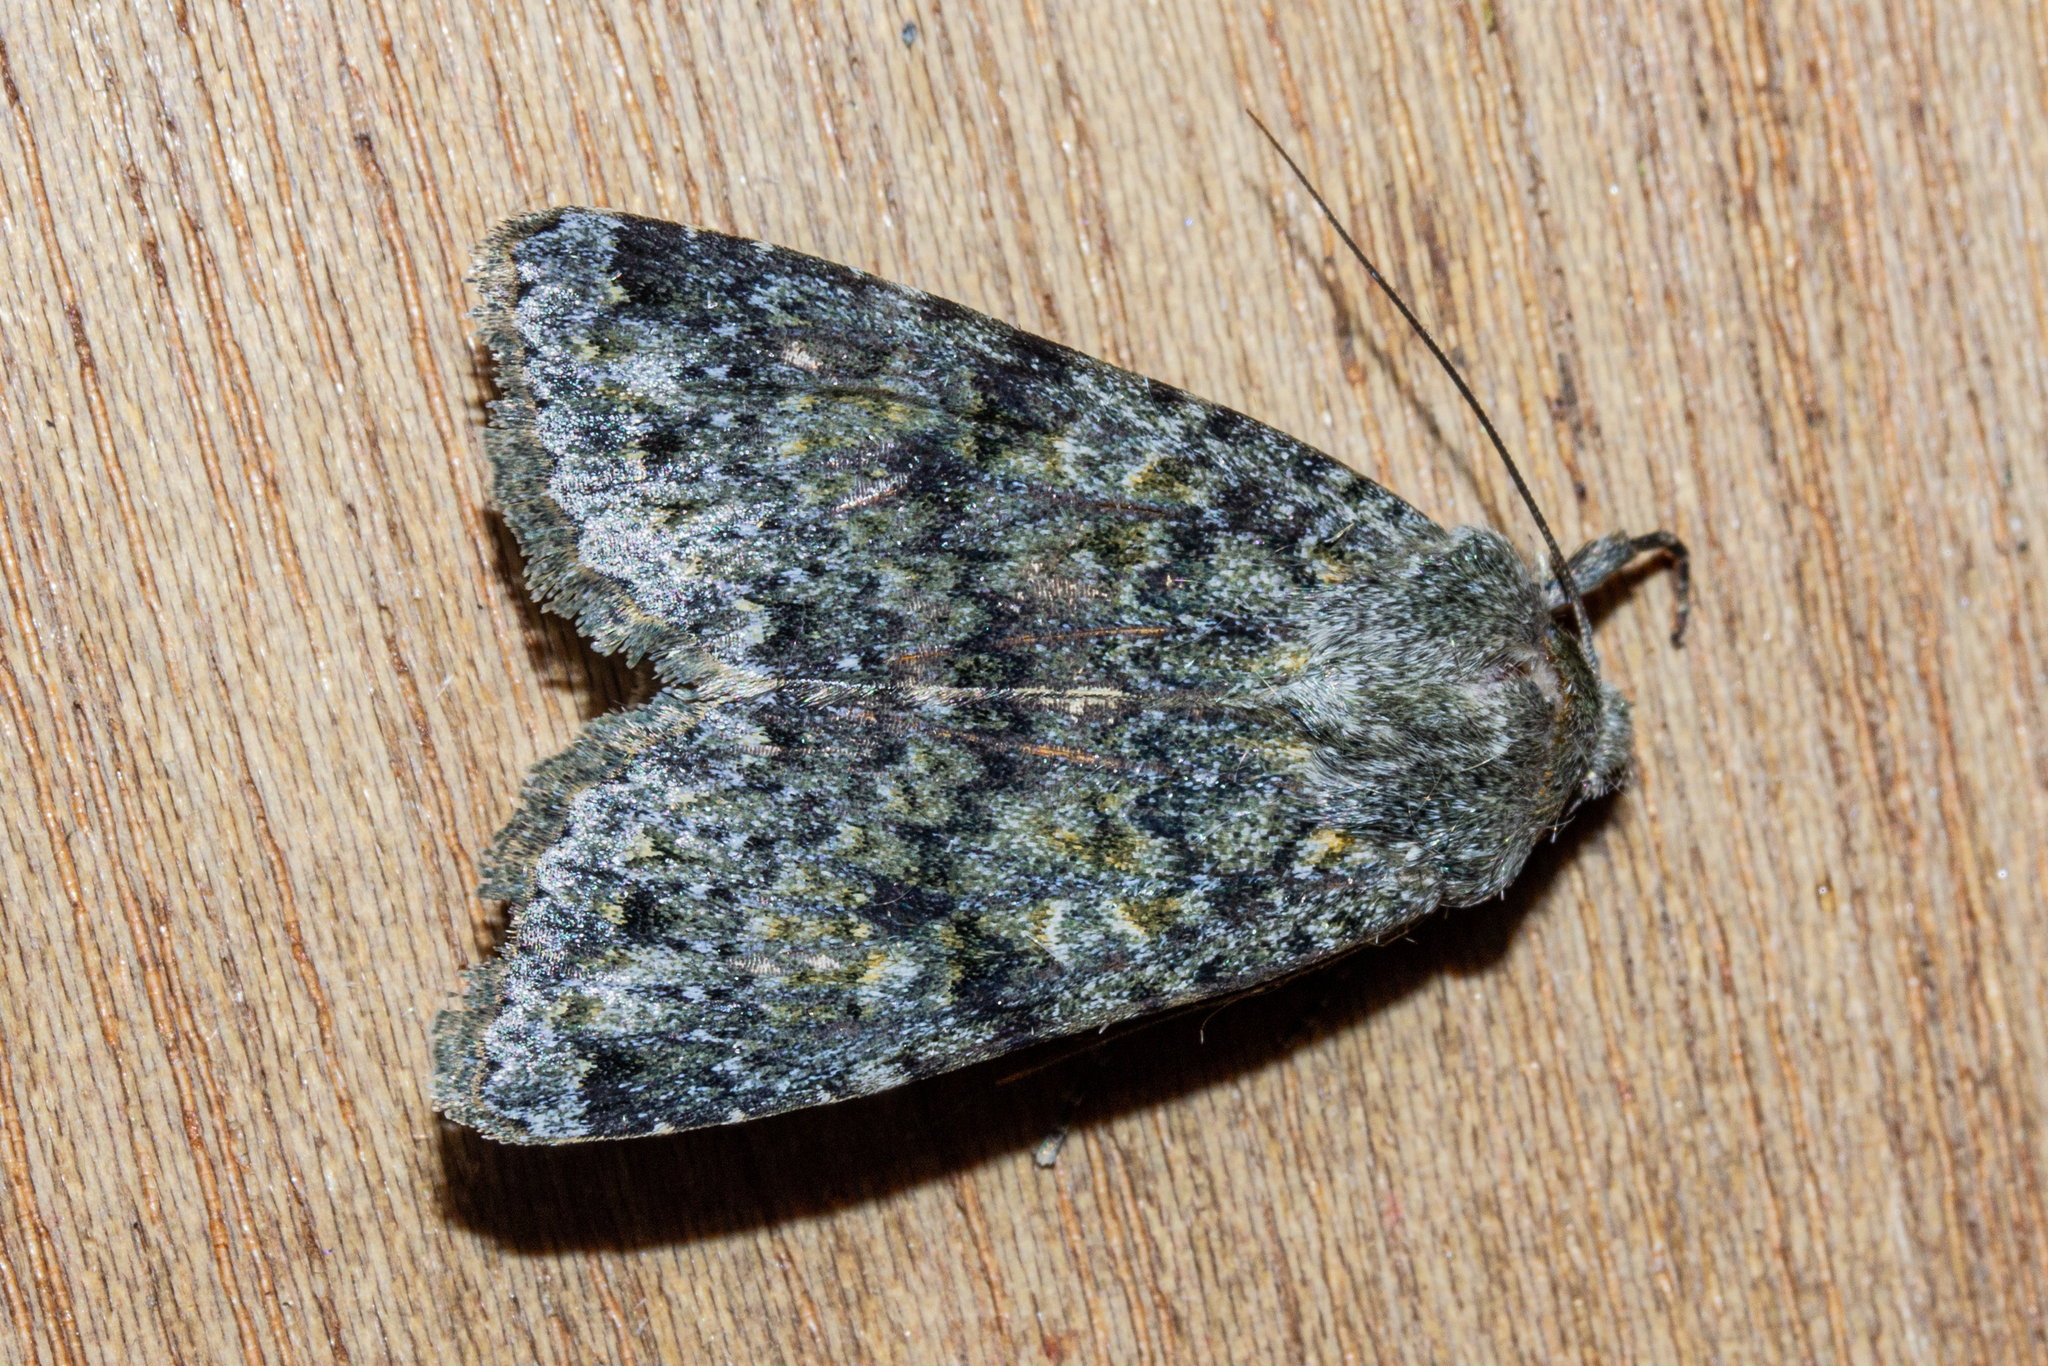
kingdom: Animalia
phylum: Arthropoda
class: Insecta
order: Lepidoptera
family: Noctuidae
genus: Ichneutica
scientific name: Ichneutica
